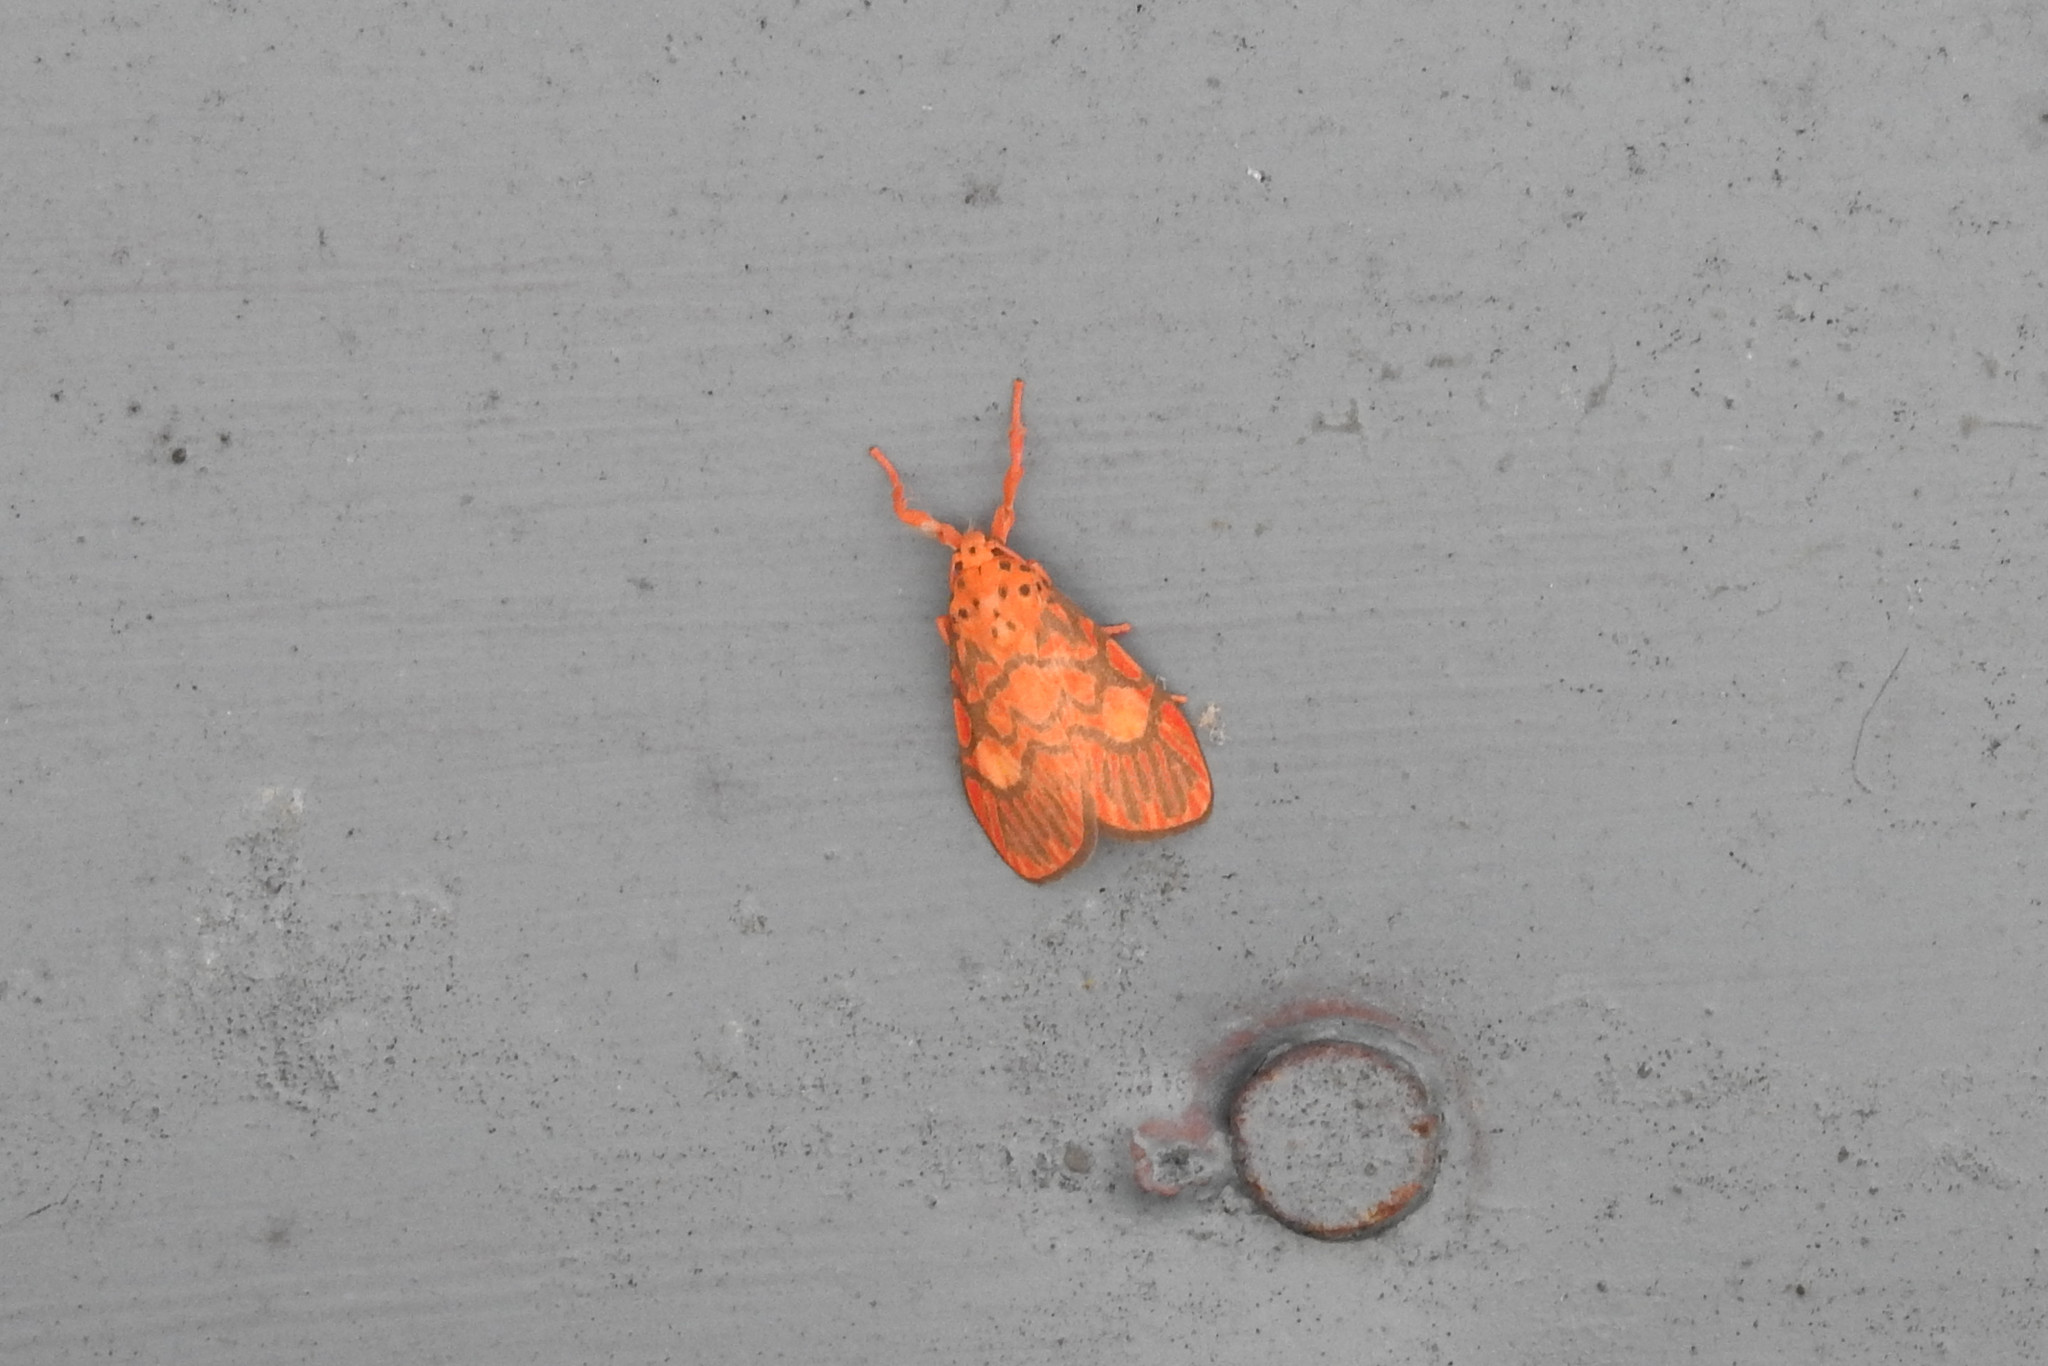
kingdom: Animalia
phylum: Arthropoda
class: Insecta
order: Lepidoptera
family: Erebidae
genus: Ammatho
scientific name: Ammatho cuneonotatus
